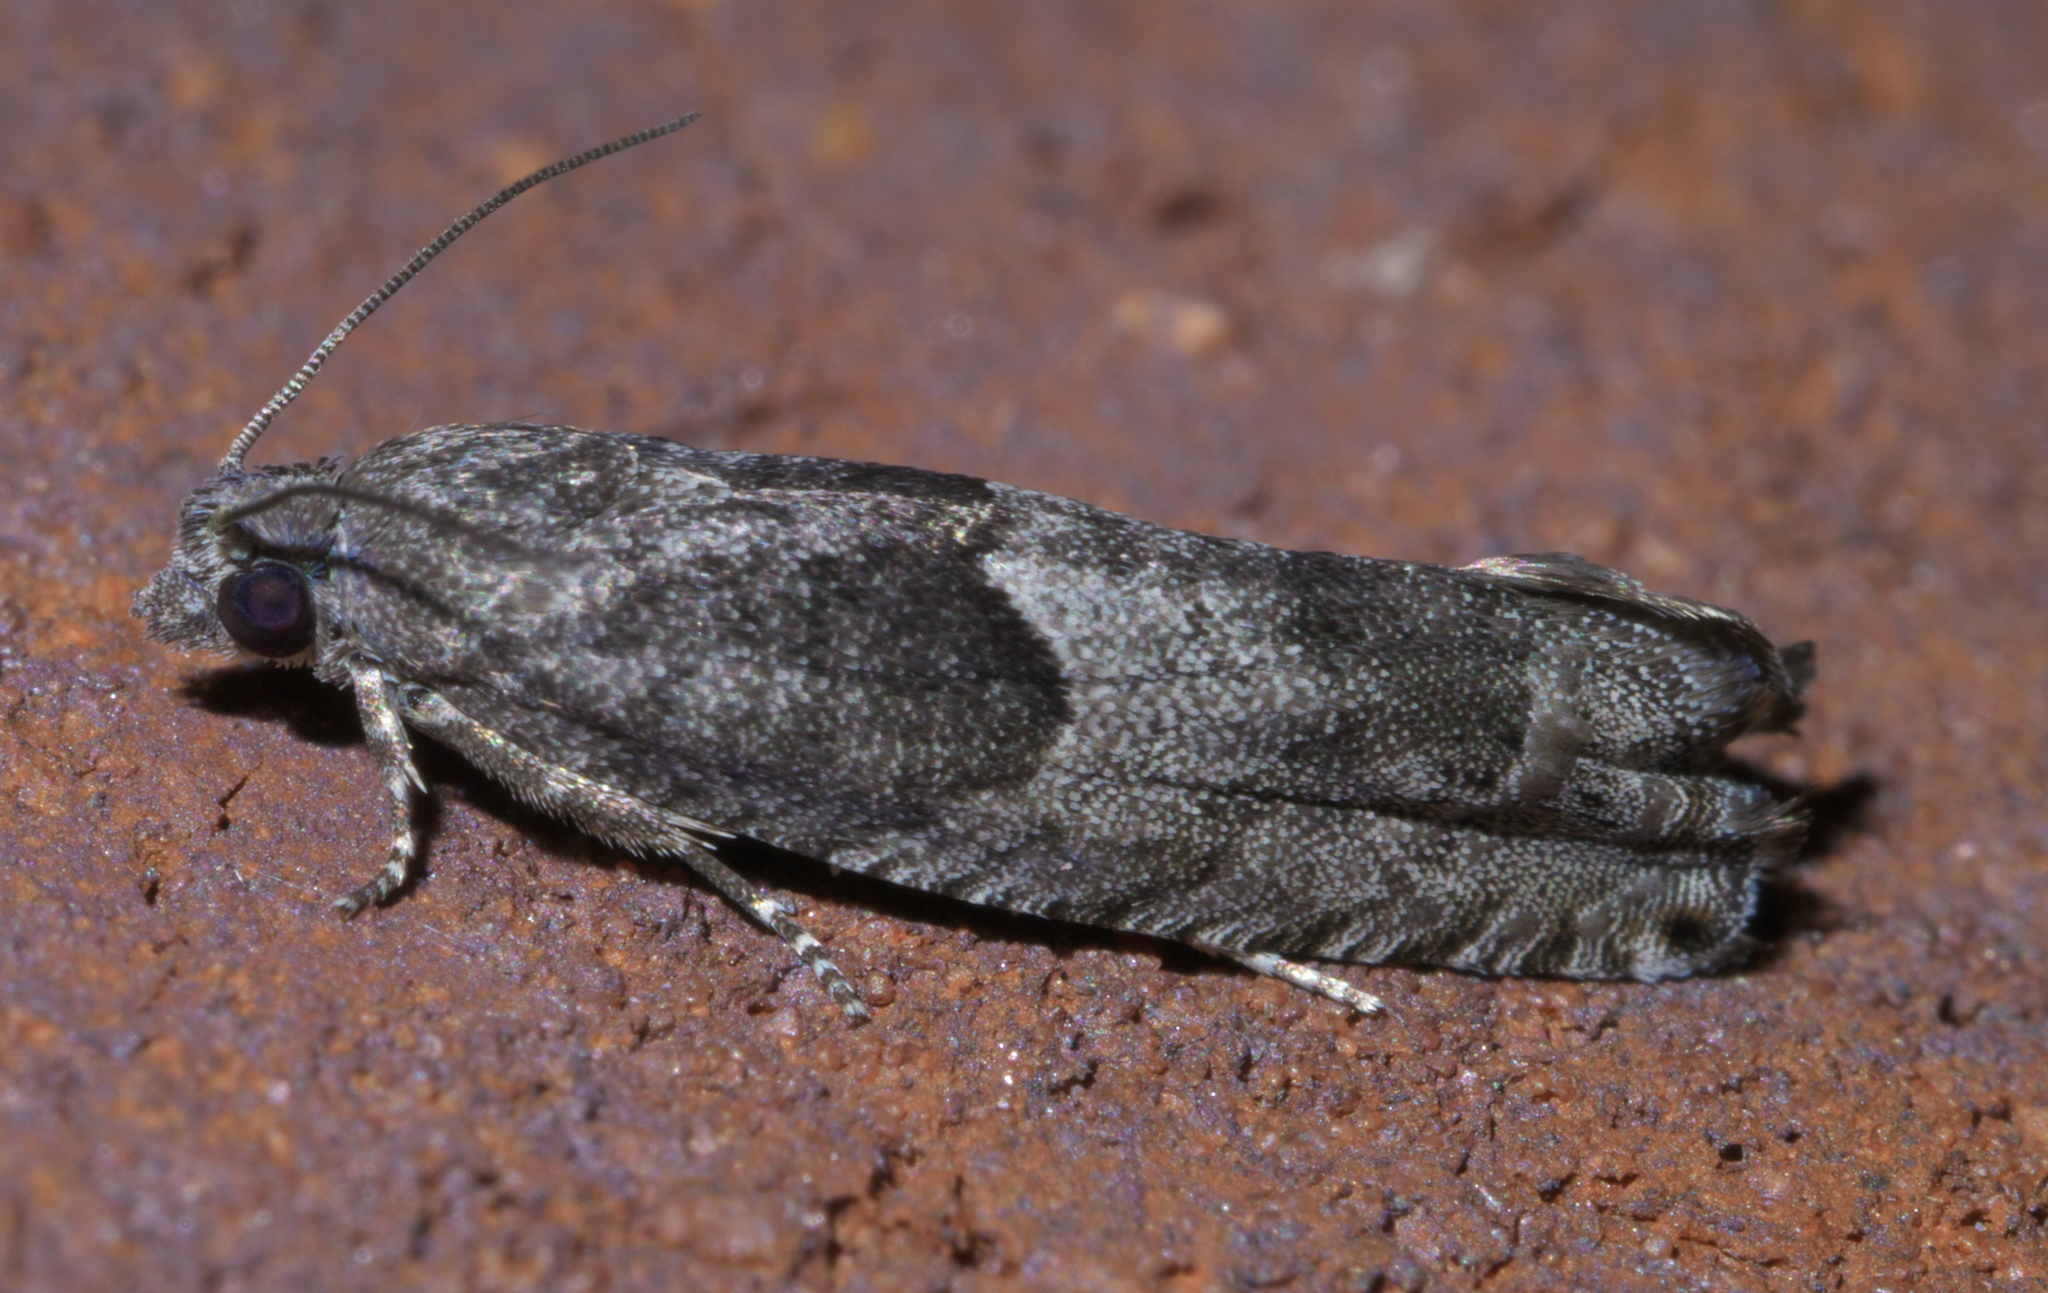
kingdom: Animalia
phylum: Arthropoda
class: Insecta
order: Lepidoptera
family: Tortricidae
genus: Pseudexentera
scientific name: Pseudexentera cressoniana
